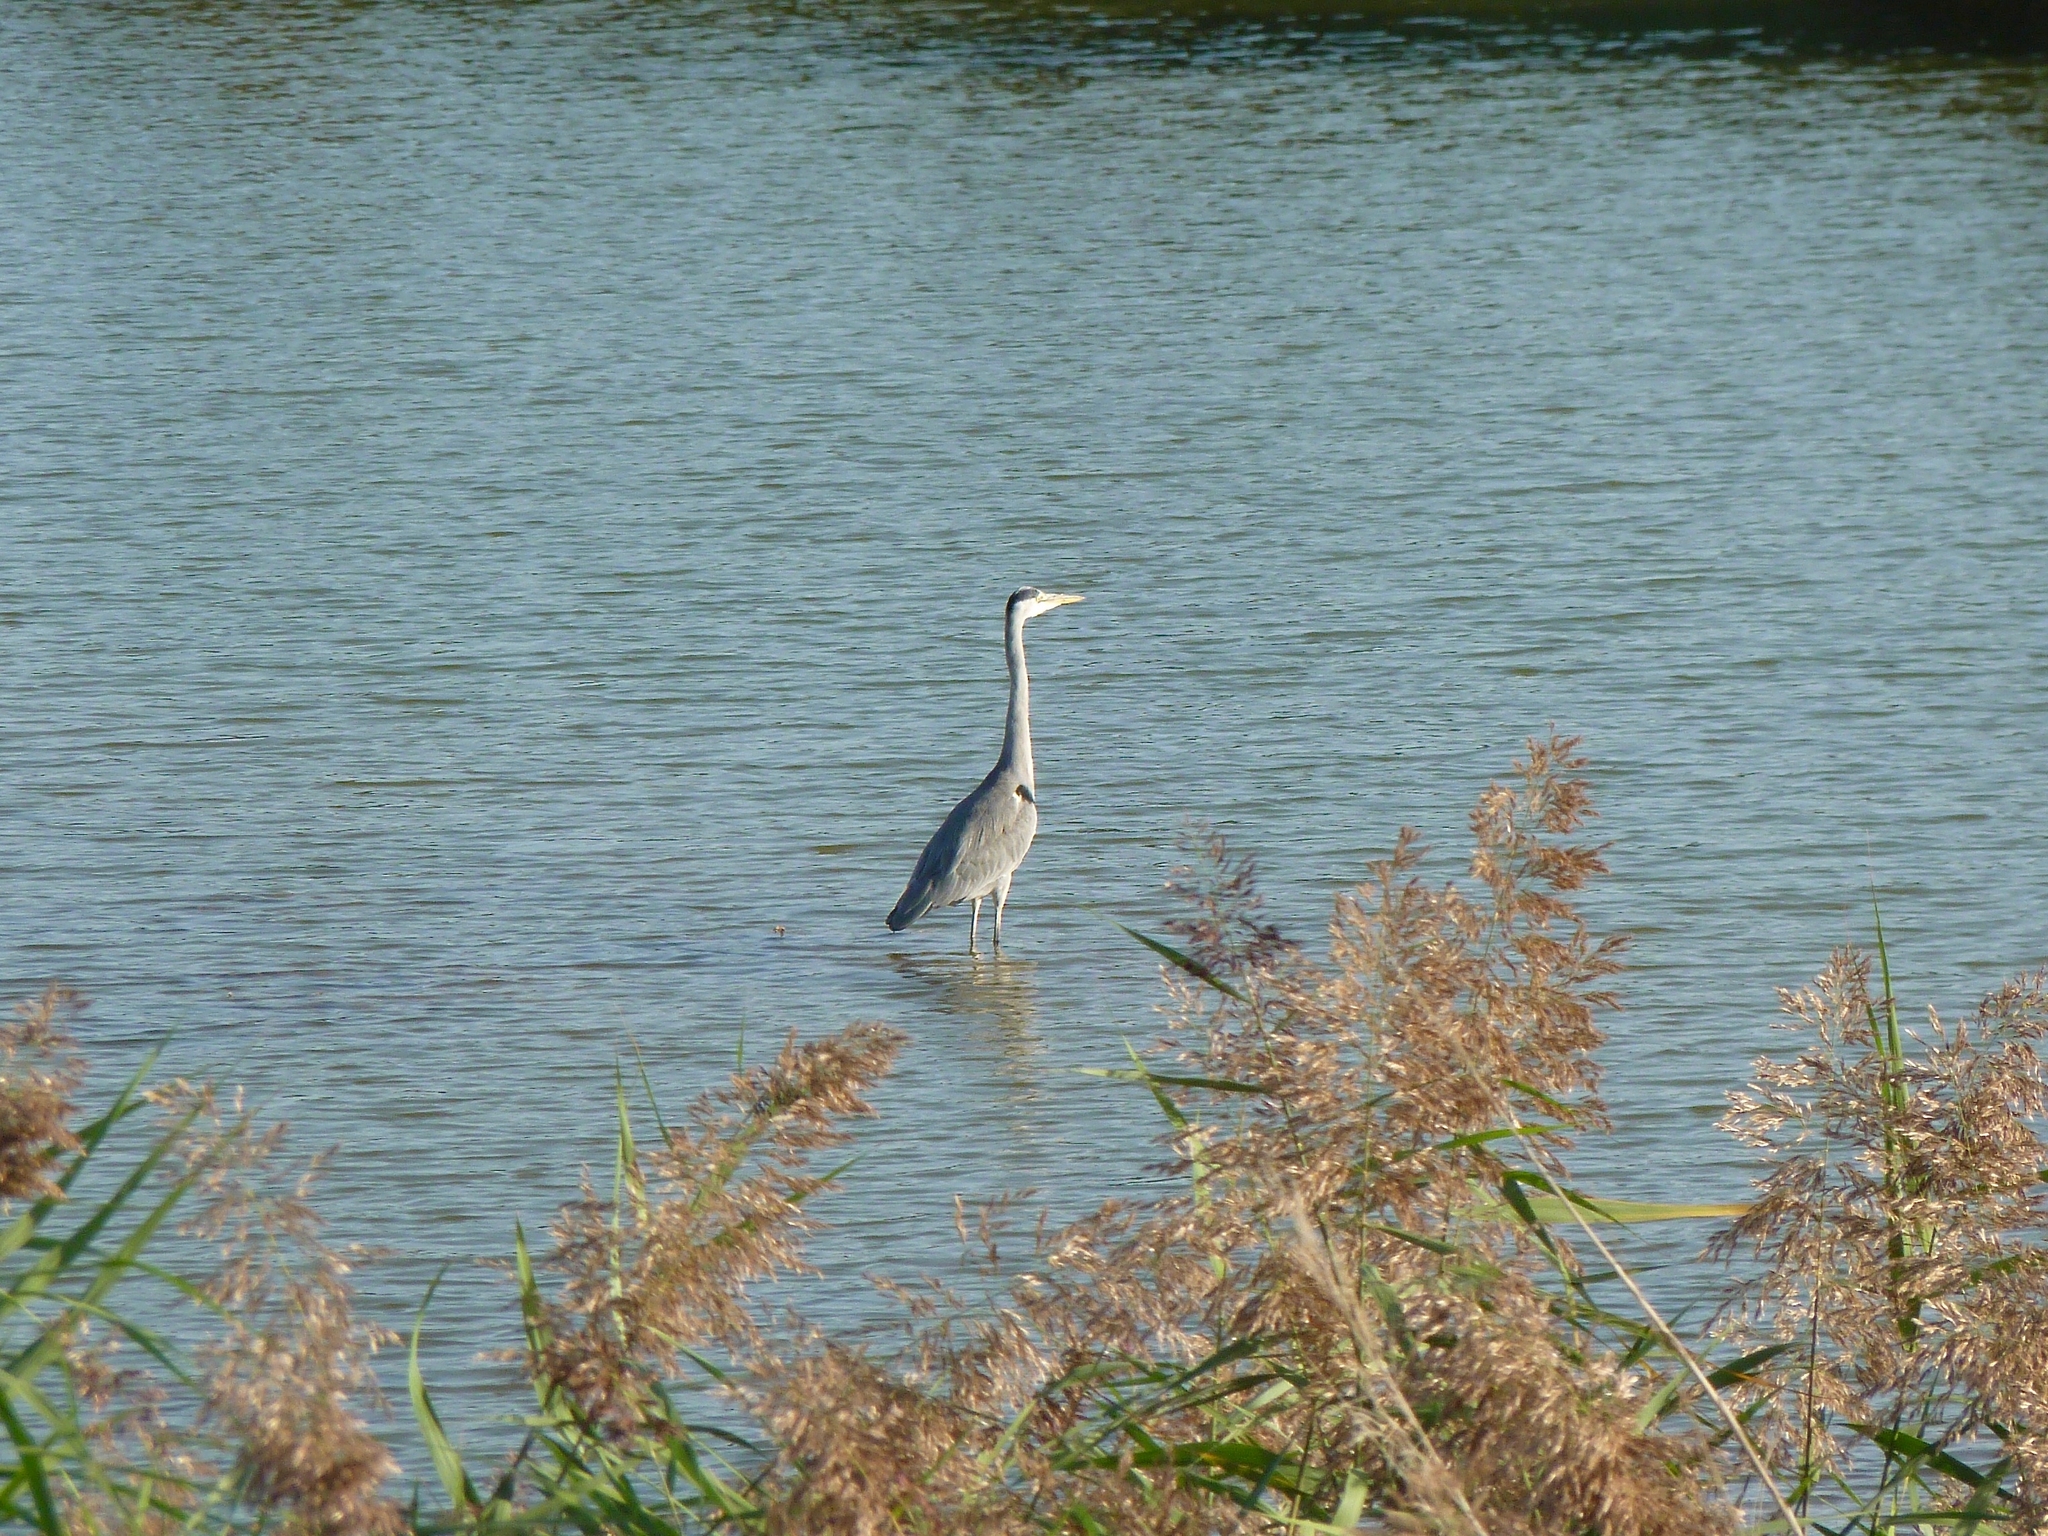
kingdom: Animalia
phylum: Chordata
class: Aves
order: Pelecaniformes
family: Ardeidae
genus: Ardea
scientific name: Ardea cinerea
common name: Grey heron
